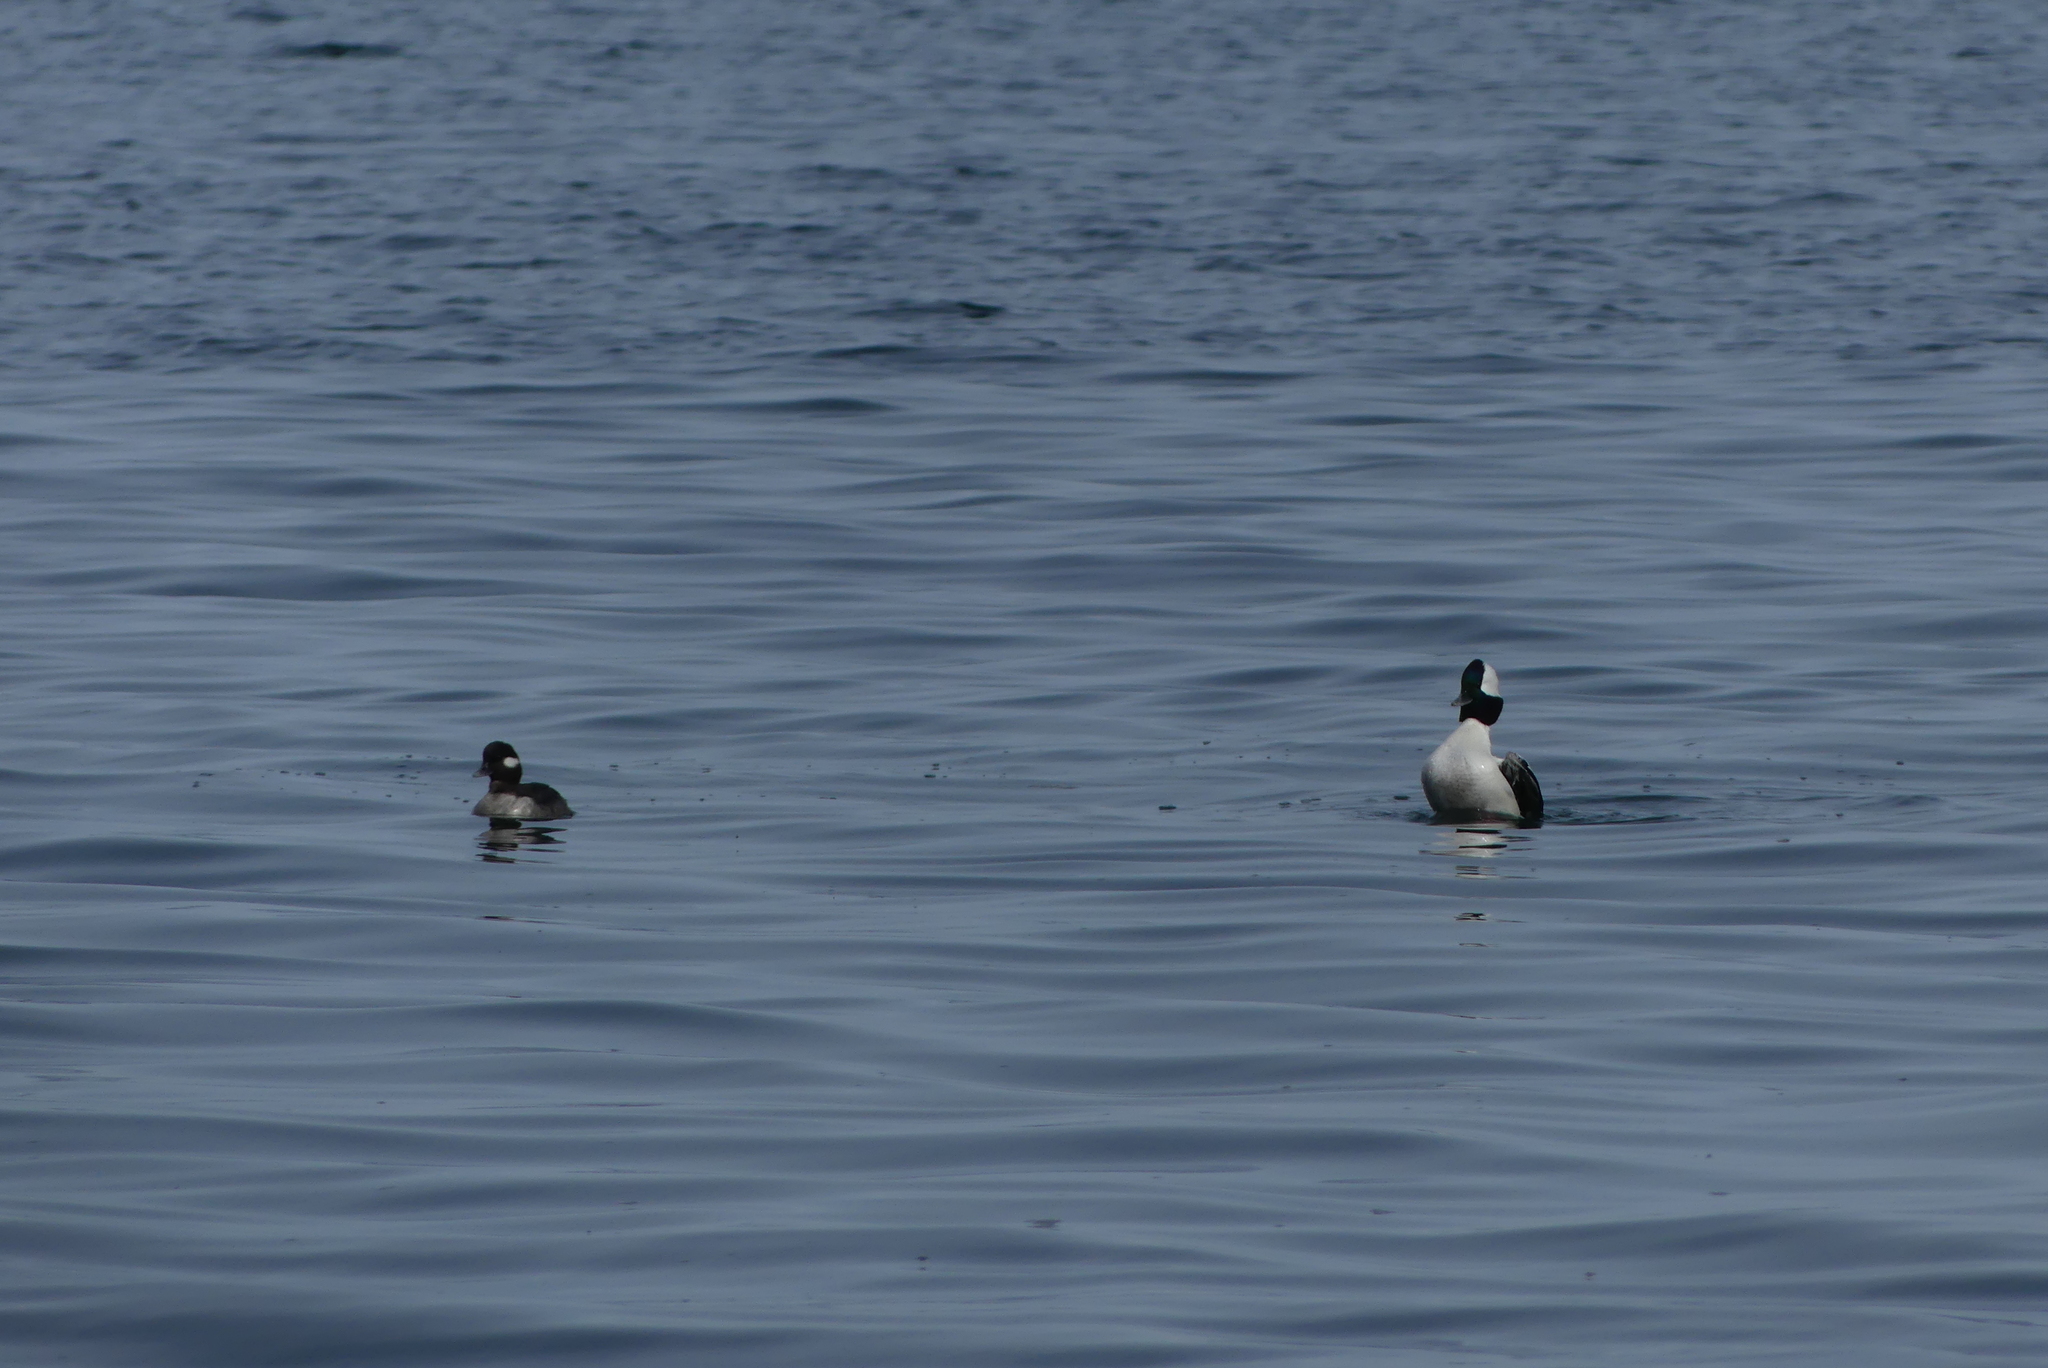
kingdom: Animalia
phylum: Chordata
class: Aves
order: Anseriformes
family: Anatidae
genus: Bucephala
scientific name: Bucephala albeola
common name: Bufflehead
